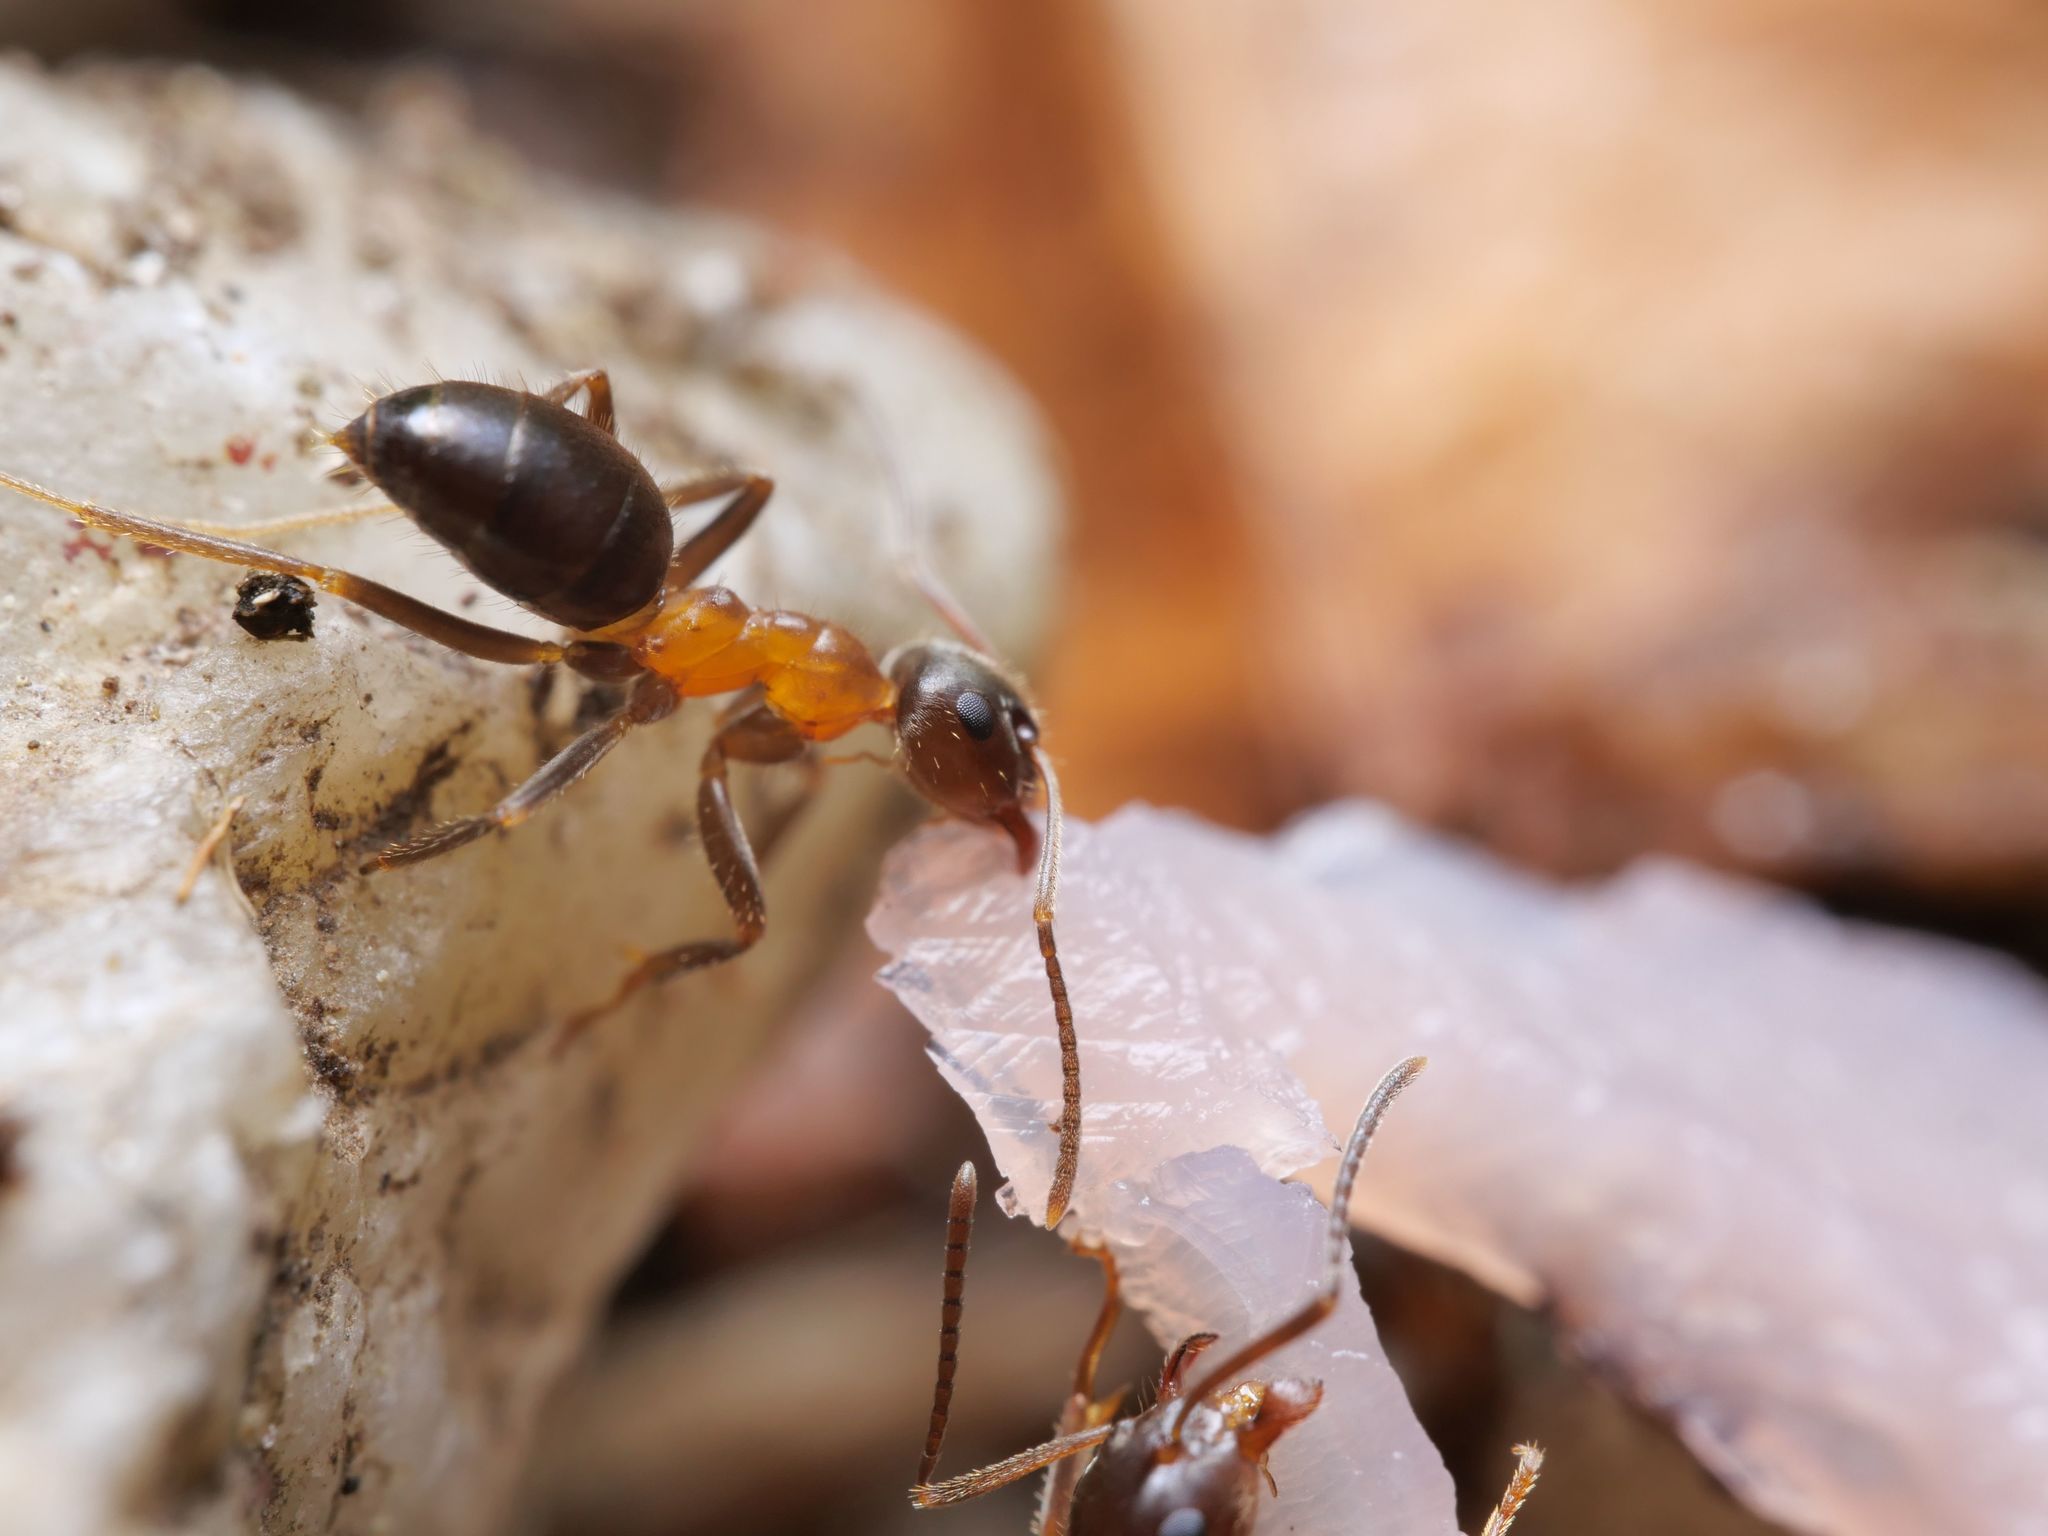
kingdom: Animalia
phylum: Arthropoda
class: Insecta
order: Hymenoptera
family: Formicidae
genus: Lasius
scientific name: Lasius emarginatus
